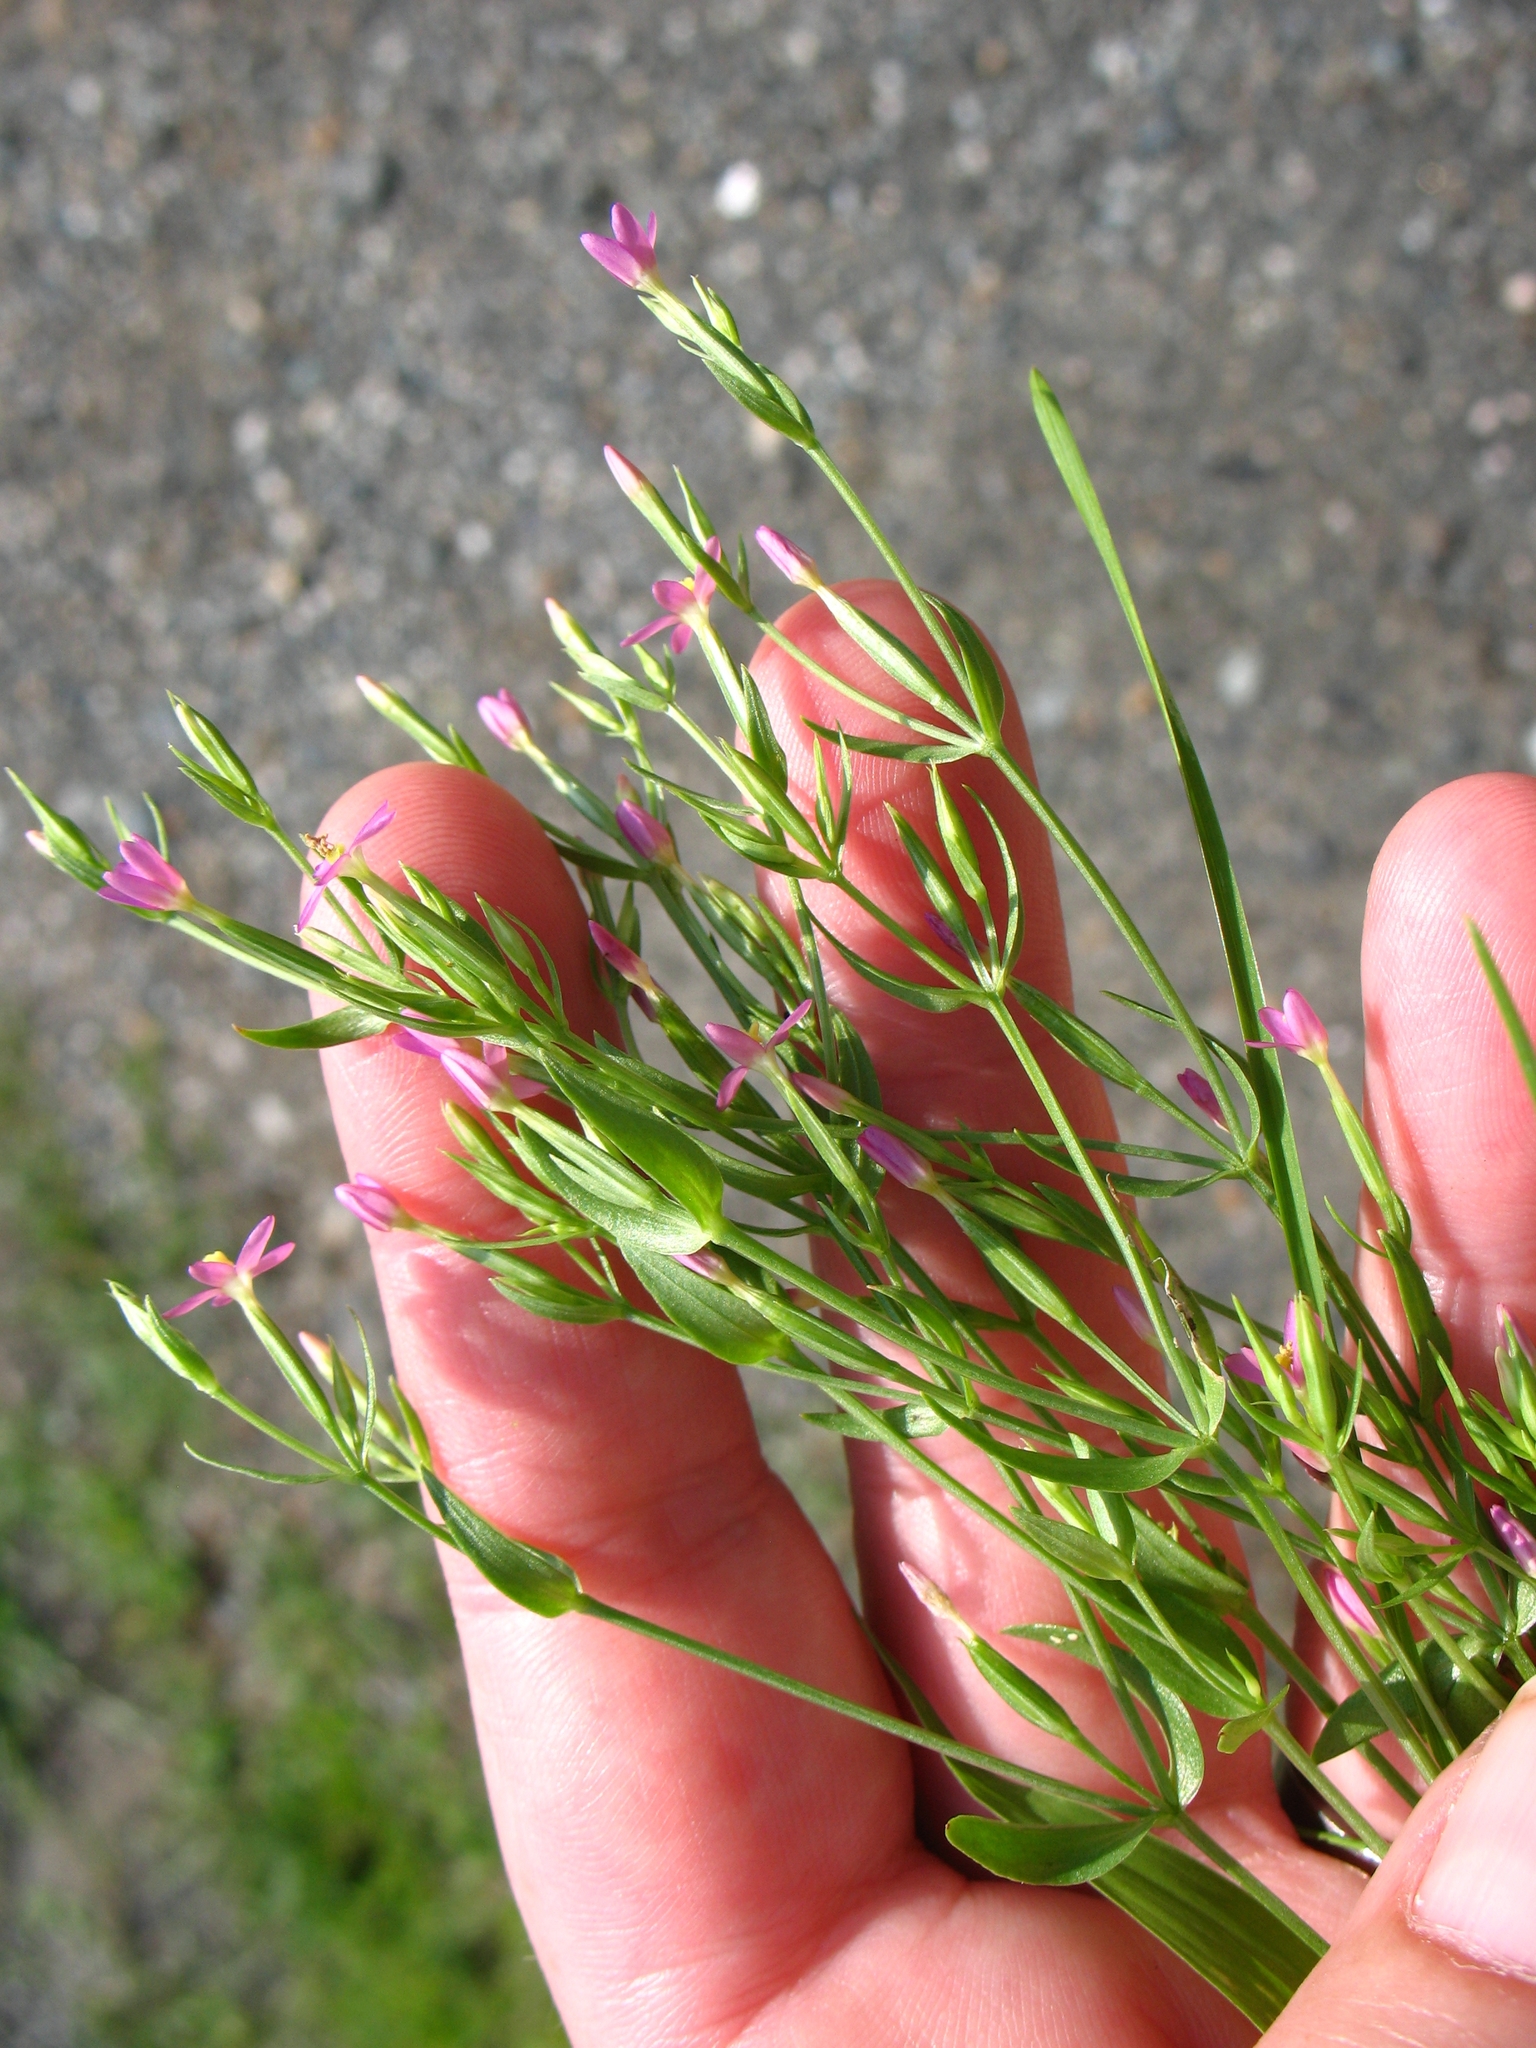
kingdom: Plantae
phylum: Tracheophyta
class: Magnoliopsida
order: Gentianales
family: Gentianaceae
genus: Centaurium
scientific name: Centaurium pulchellum
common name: Lesser centaury
